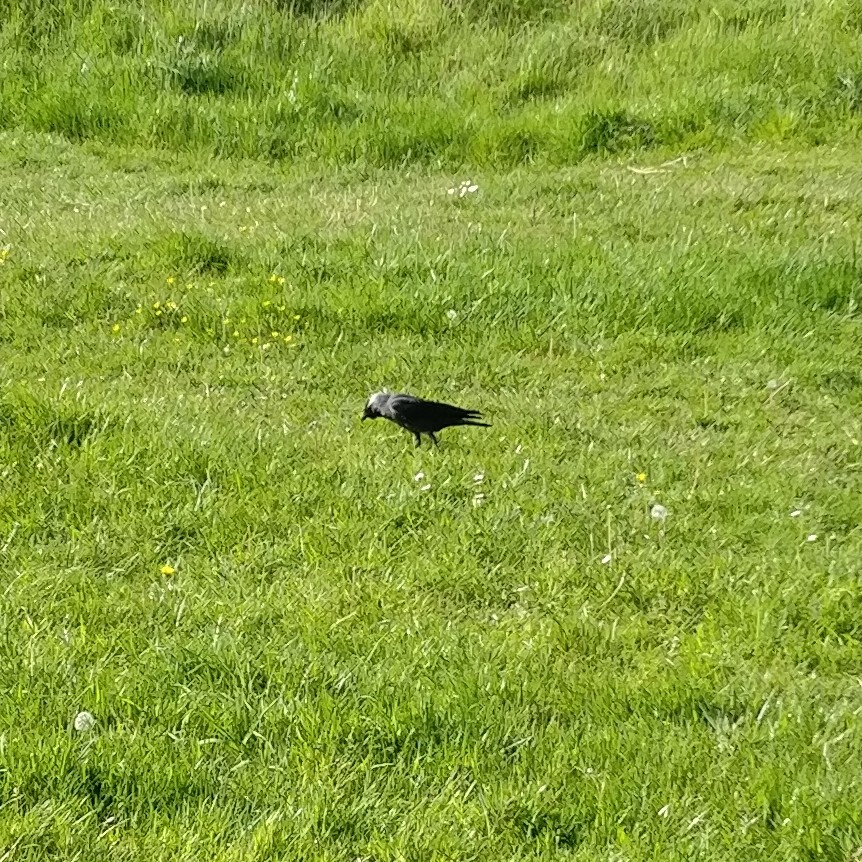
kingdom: Animalia
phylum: Chordata
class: Aves
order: Passeriformes
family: Corvidae
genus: Coloeus
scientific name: Coloeus monedula
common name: Western jackdaw
